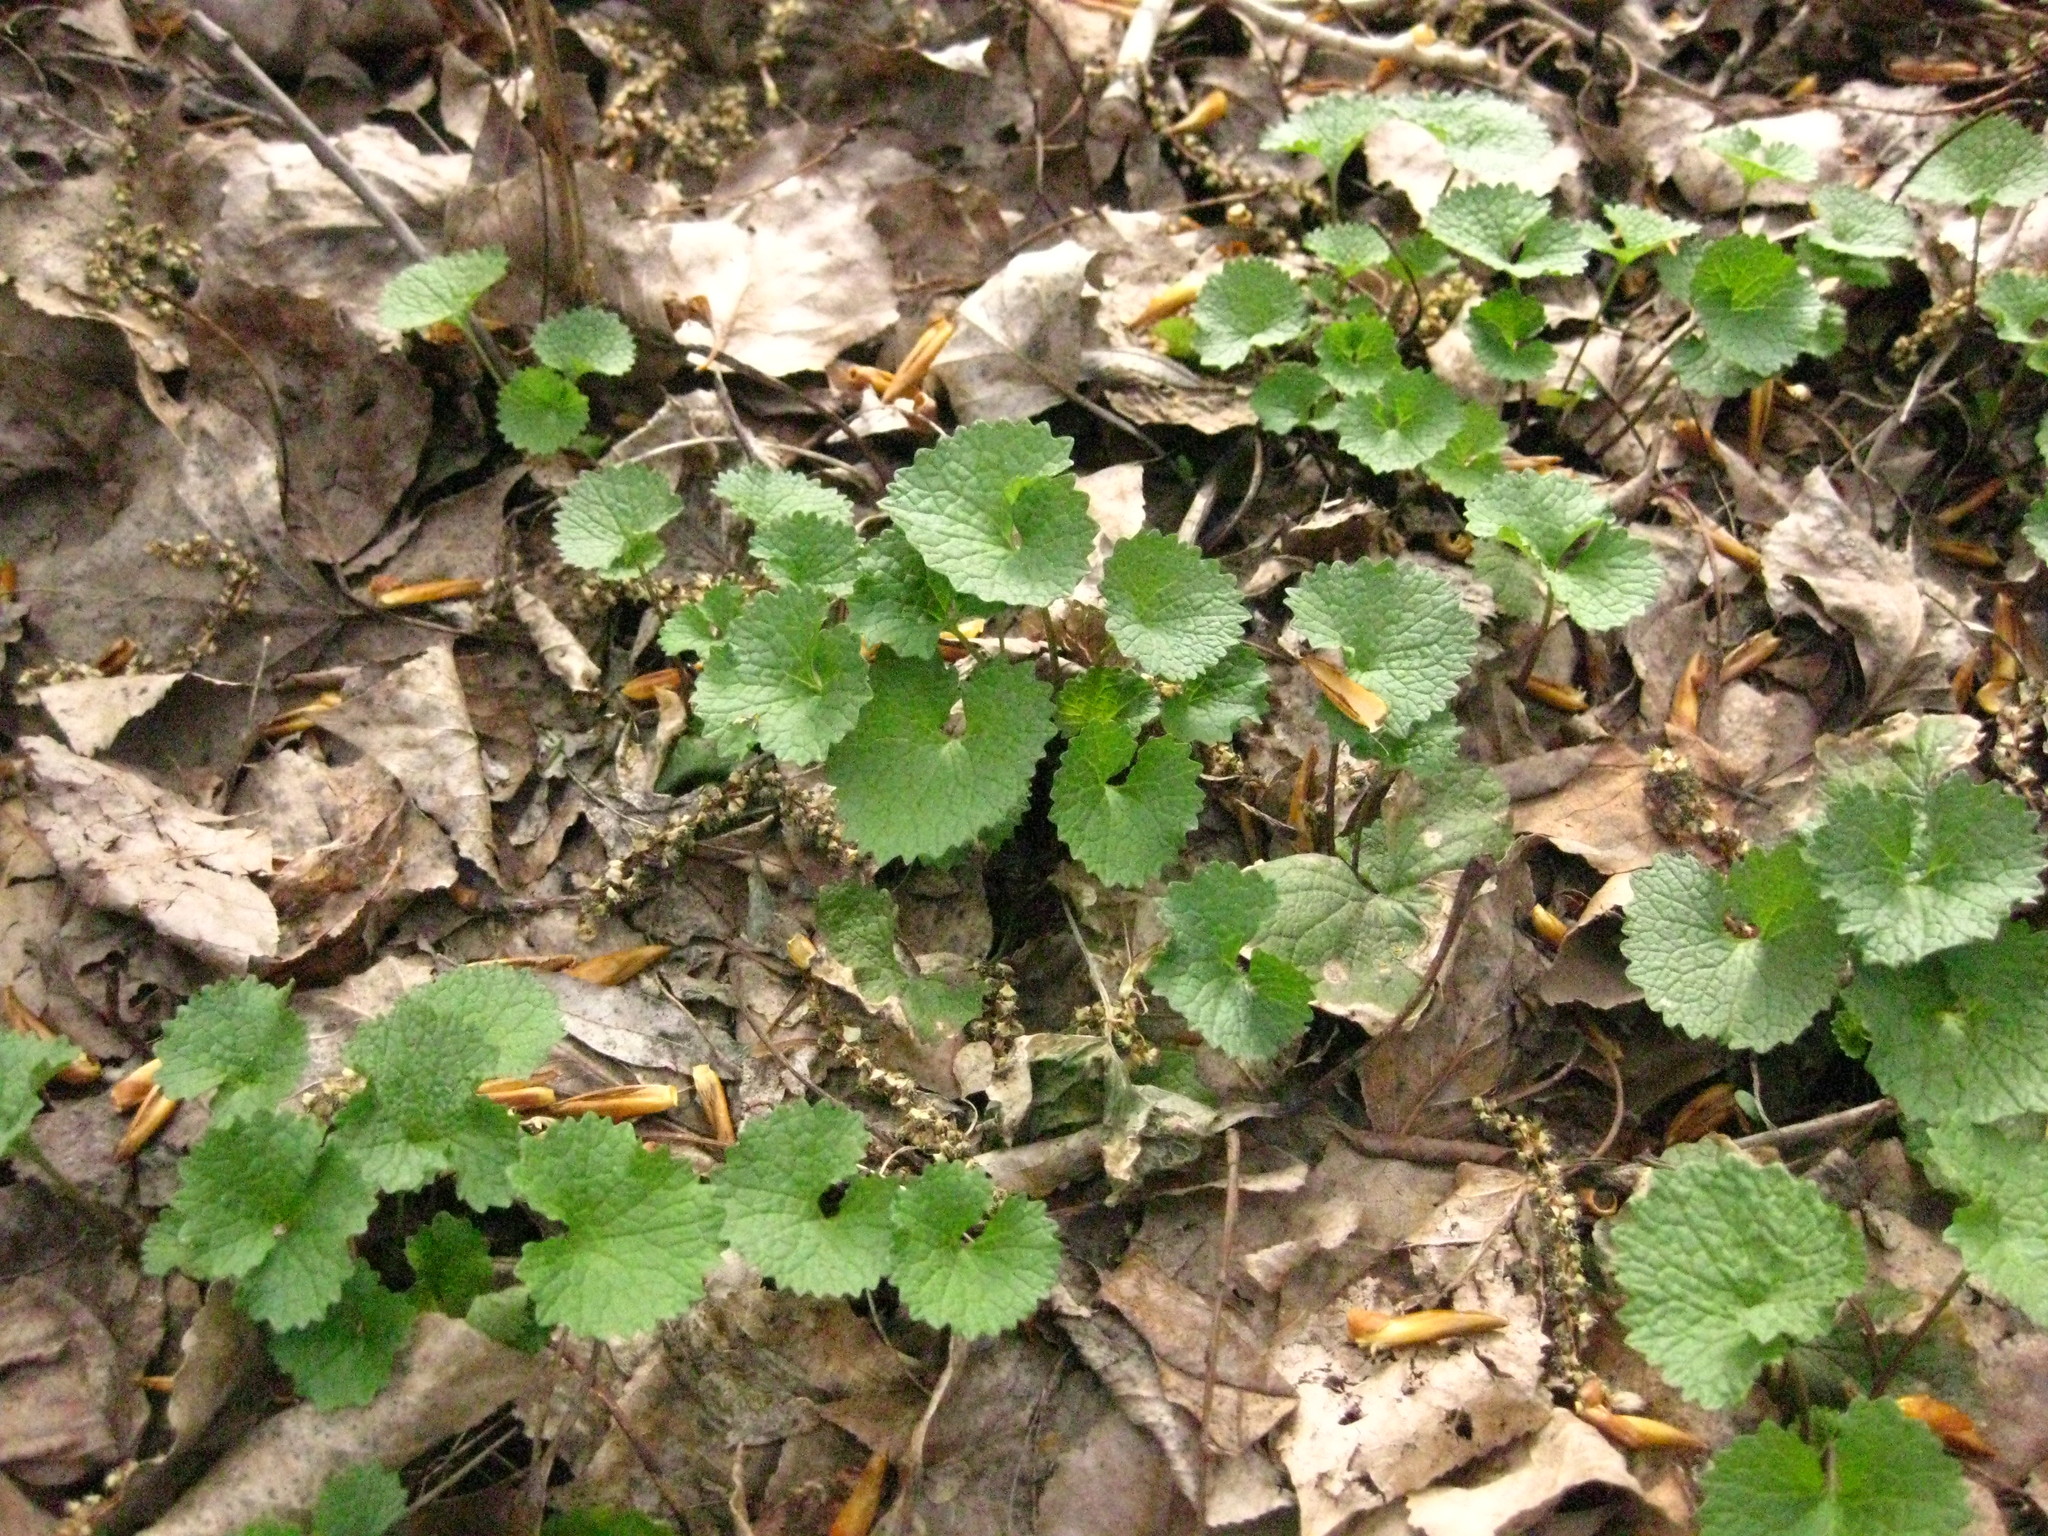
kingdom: Plantae
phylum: Tracheophyta
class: Magnoliopsida
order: Brassicales
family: Brassicaceae
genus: Alliaria
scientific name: Alliaria petiolata
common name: Garlic mustard
